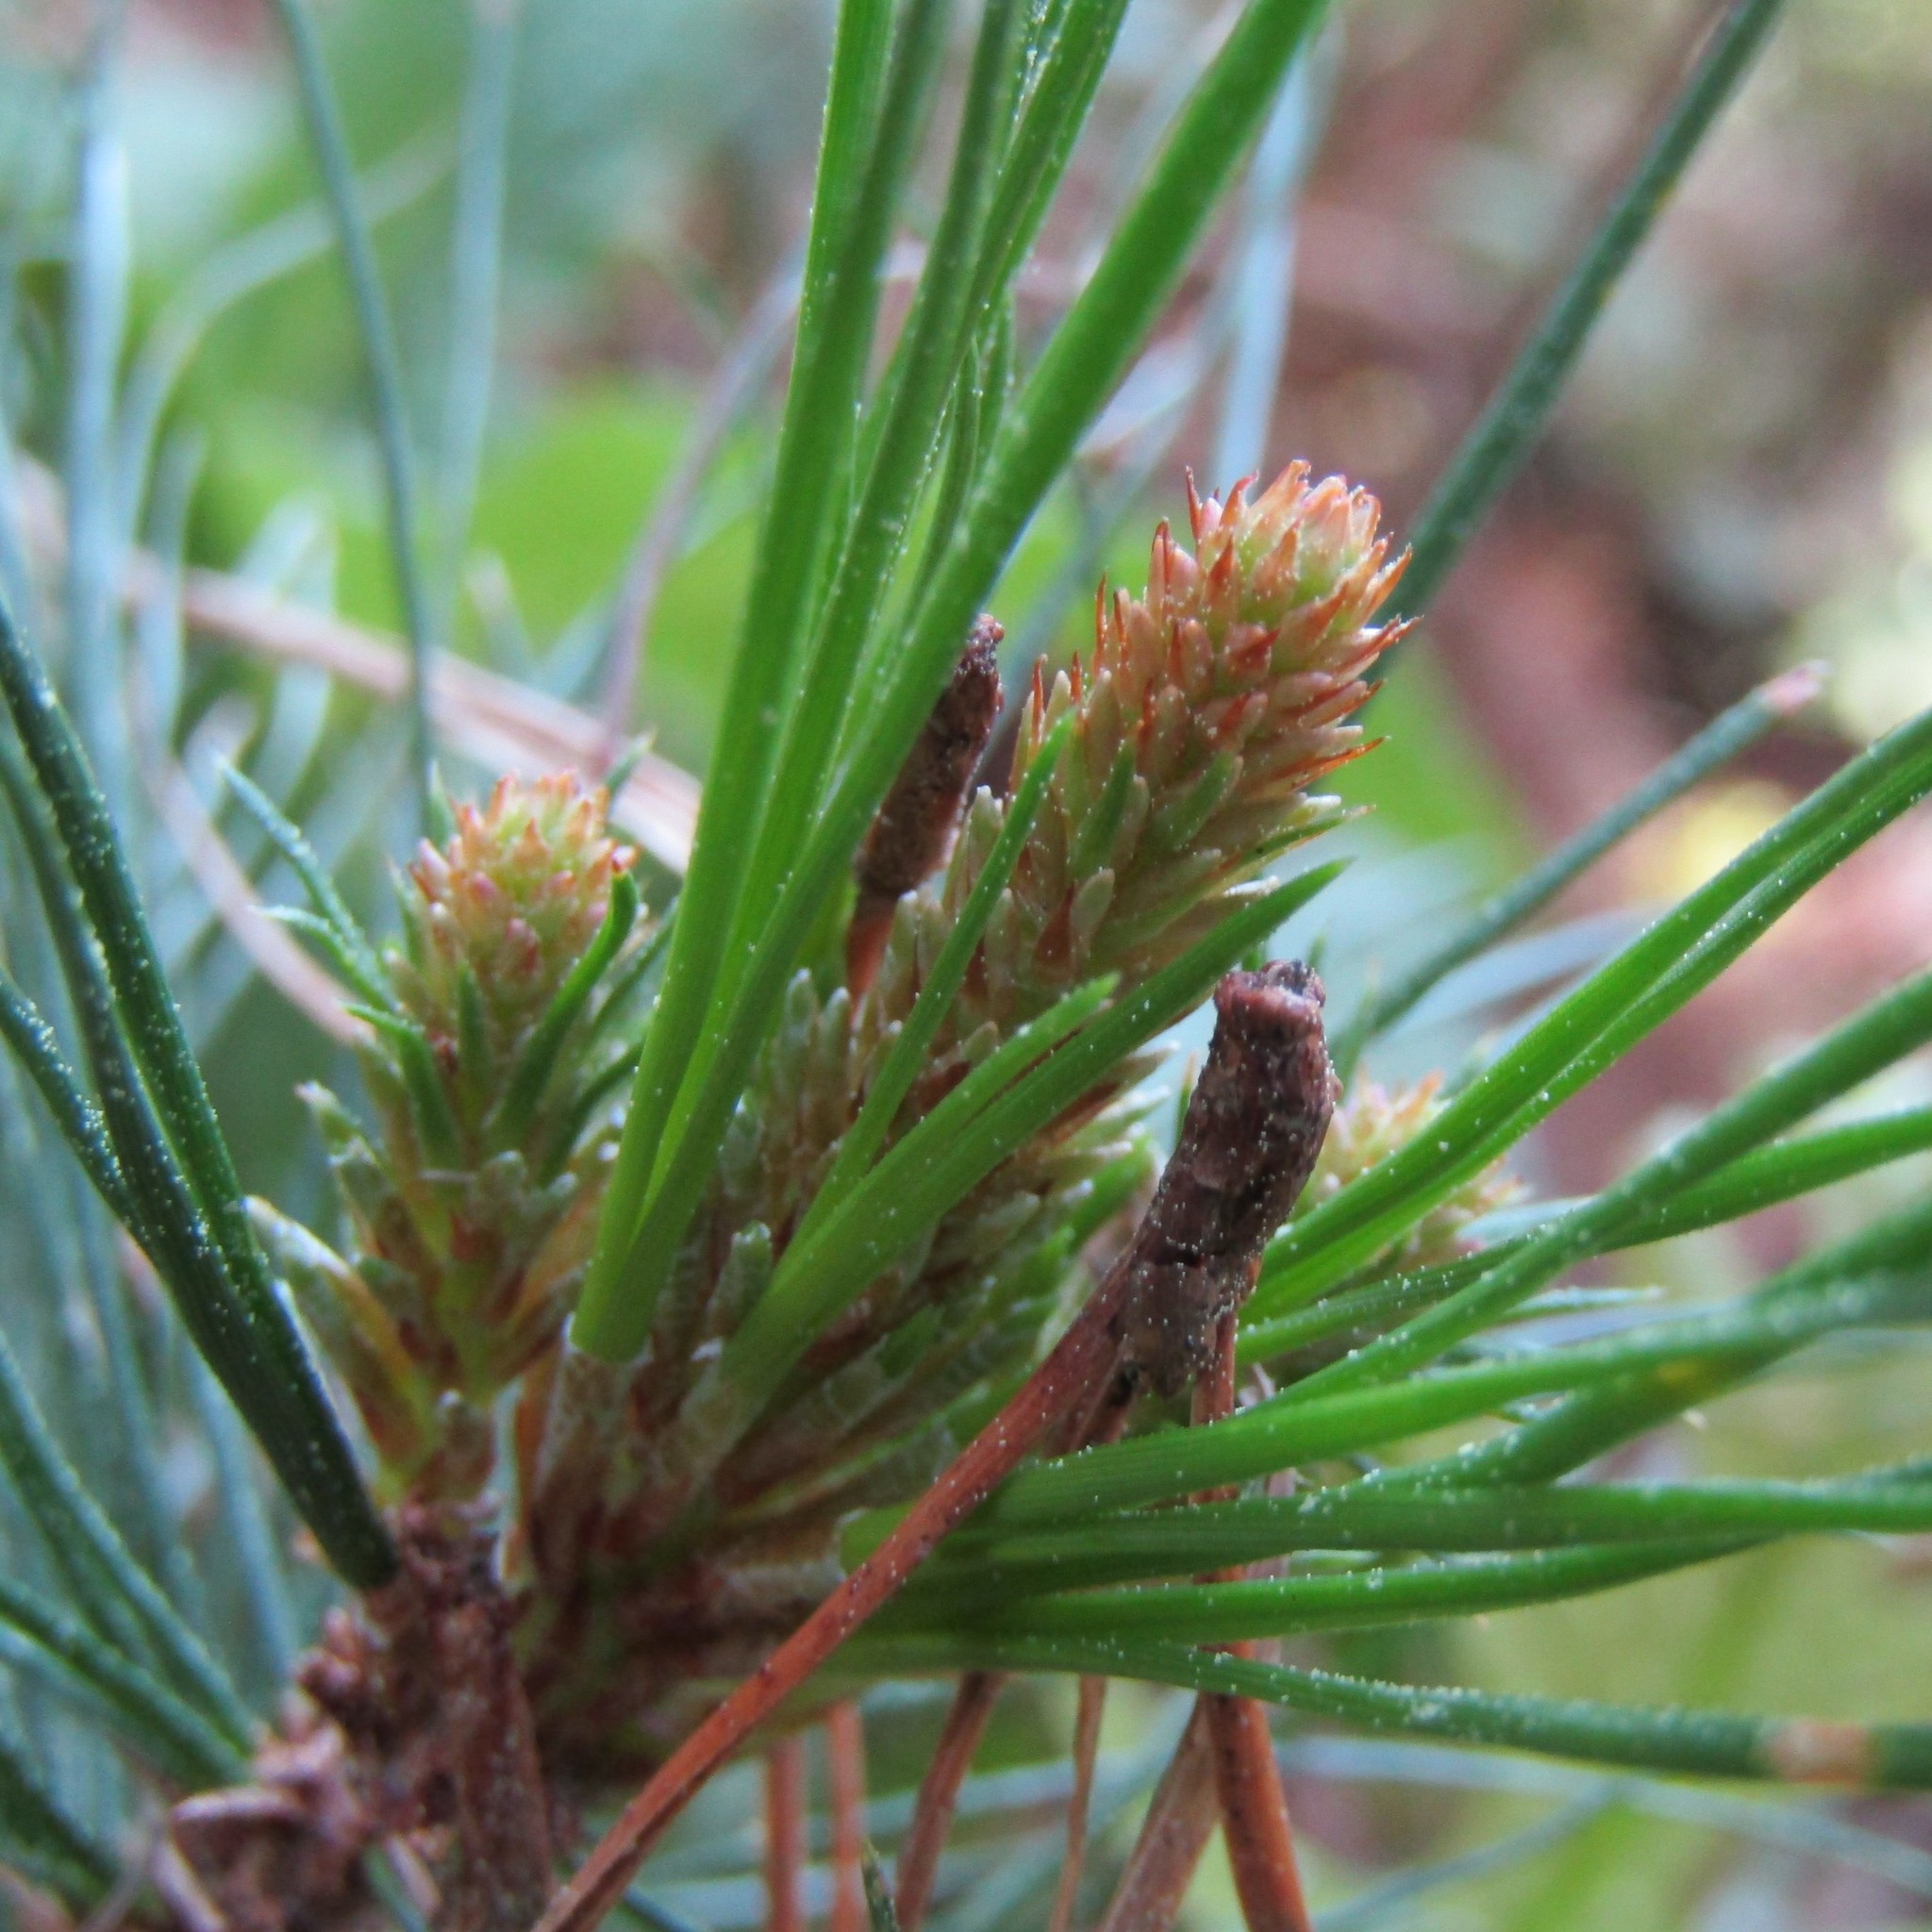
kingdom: Plantae
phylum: Tracheophyta
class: Pinopsida
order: Pinales
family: Pinaceae
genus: Pinus
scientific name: Pinus radiata
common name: Monterey pine
